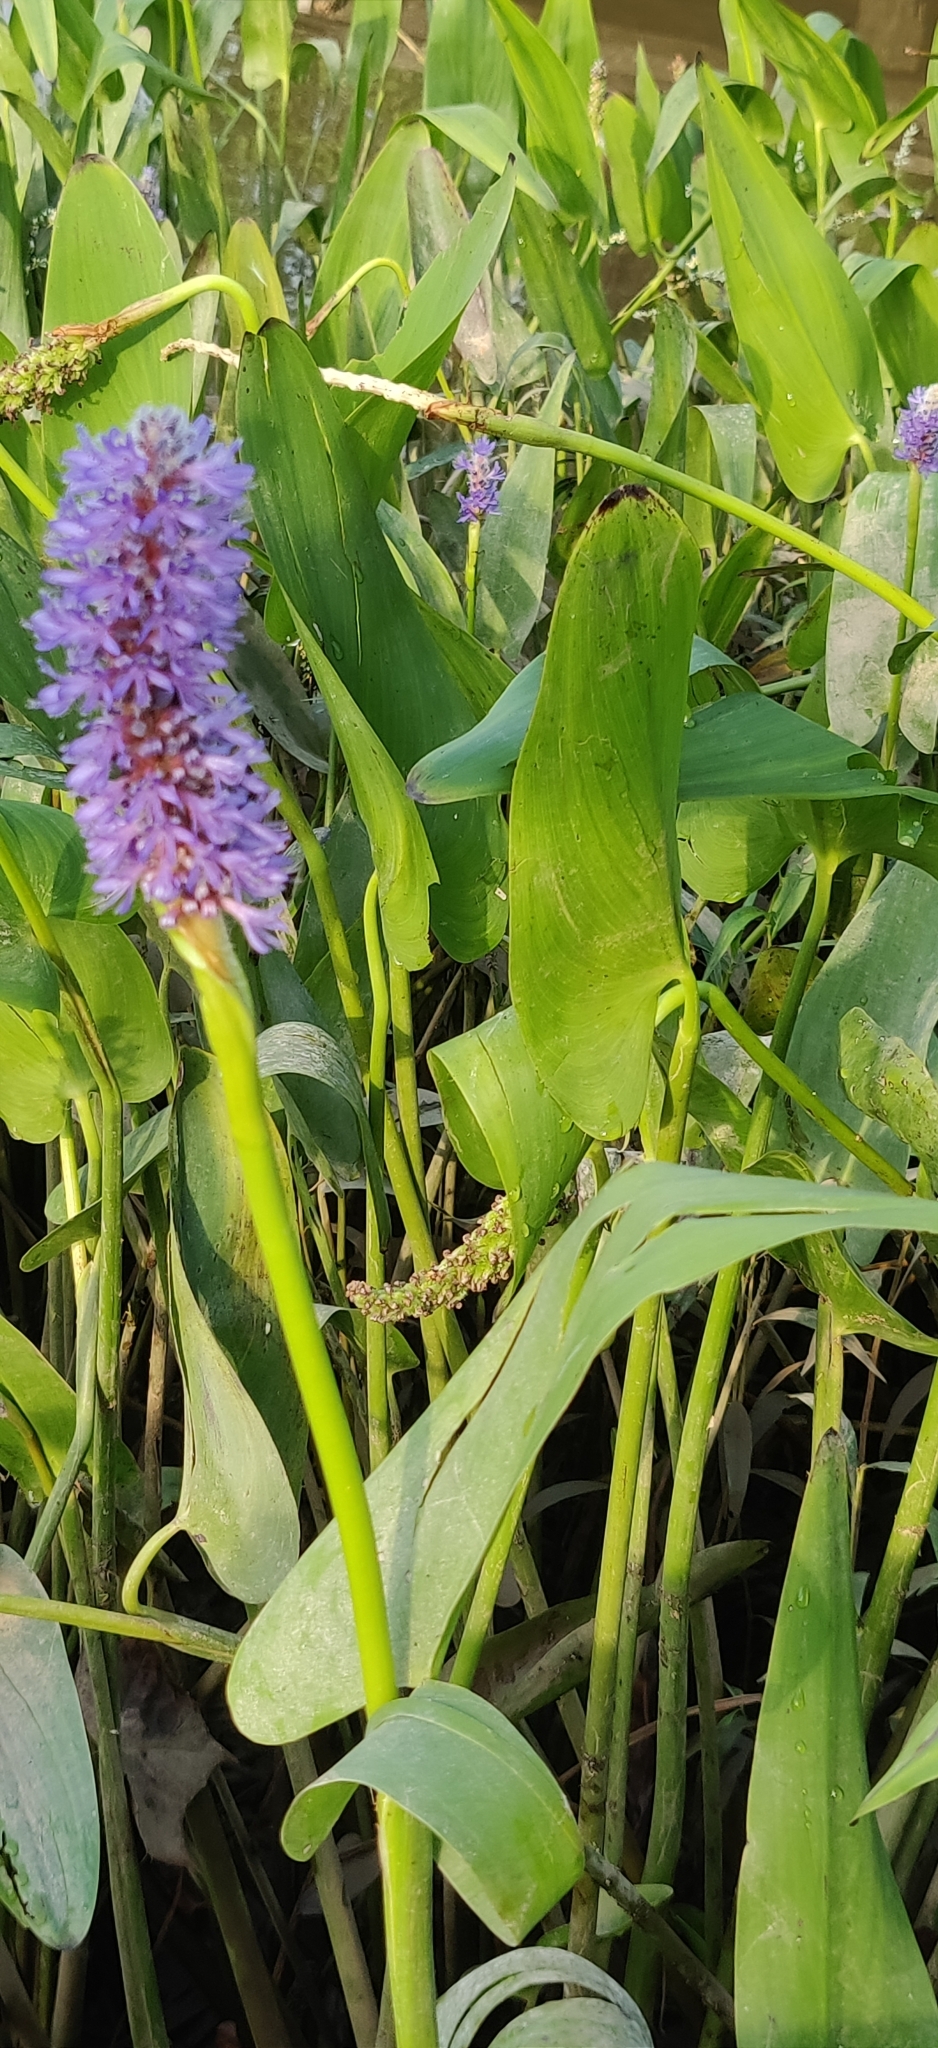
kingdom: Plantae
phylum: Tracheophyta
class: Liliopsida
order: Commelinales
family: Pontederiaceae
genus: Pontederia
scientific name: Pontederia cordata
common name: Pickerelweed
